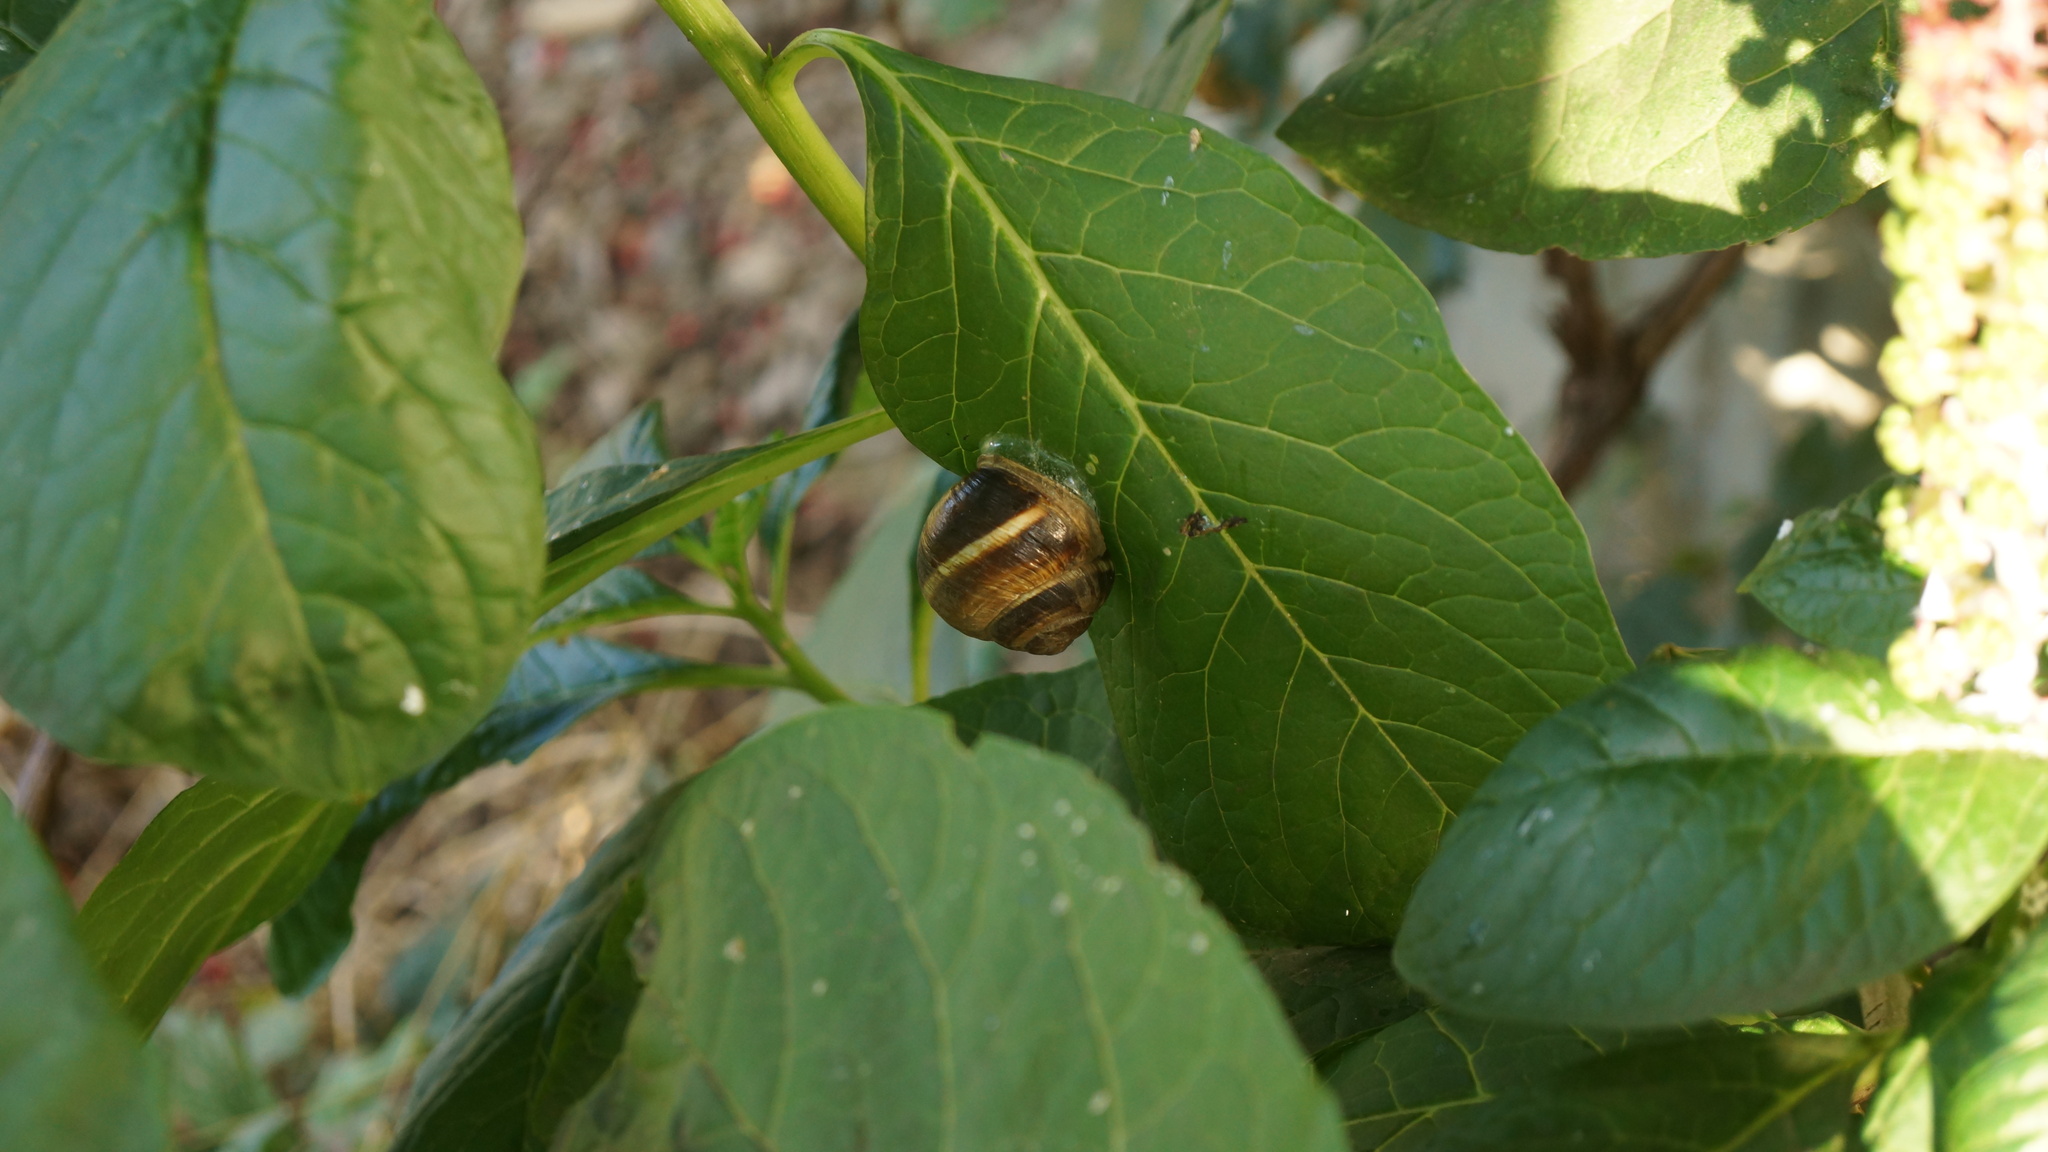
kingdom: Animalia
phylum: Mollusca
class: Gastropoda
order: Stylommatophora
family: Helicidae
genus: Helix
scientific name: Helix lucorum
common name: Turkish snail
